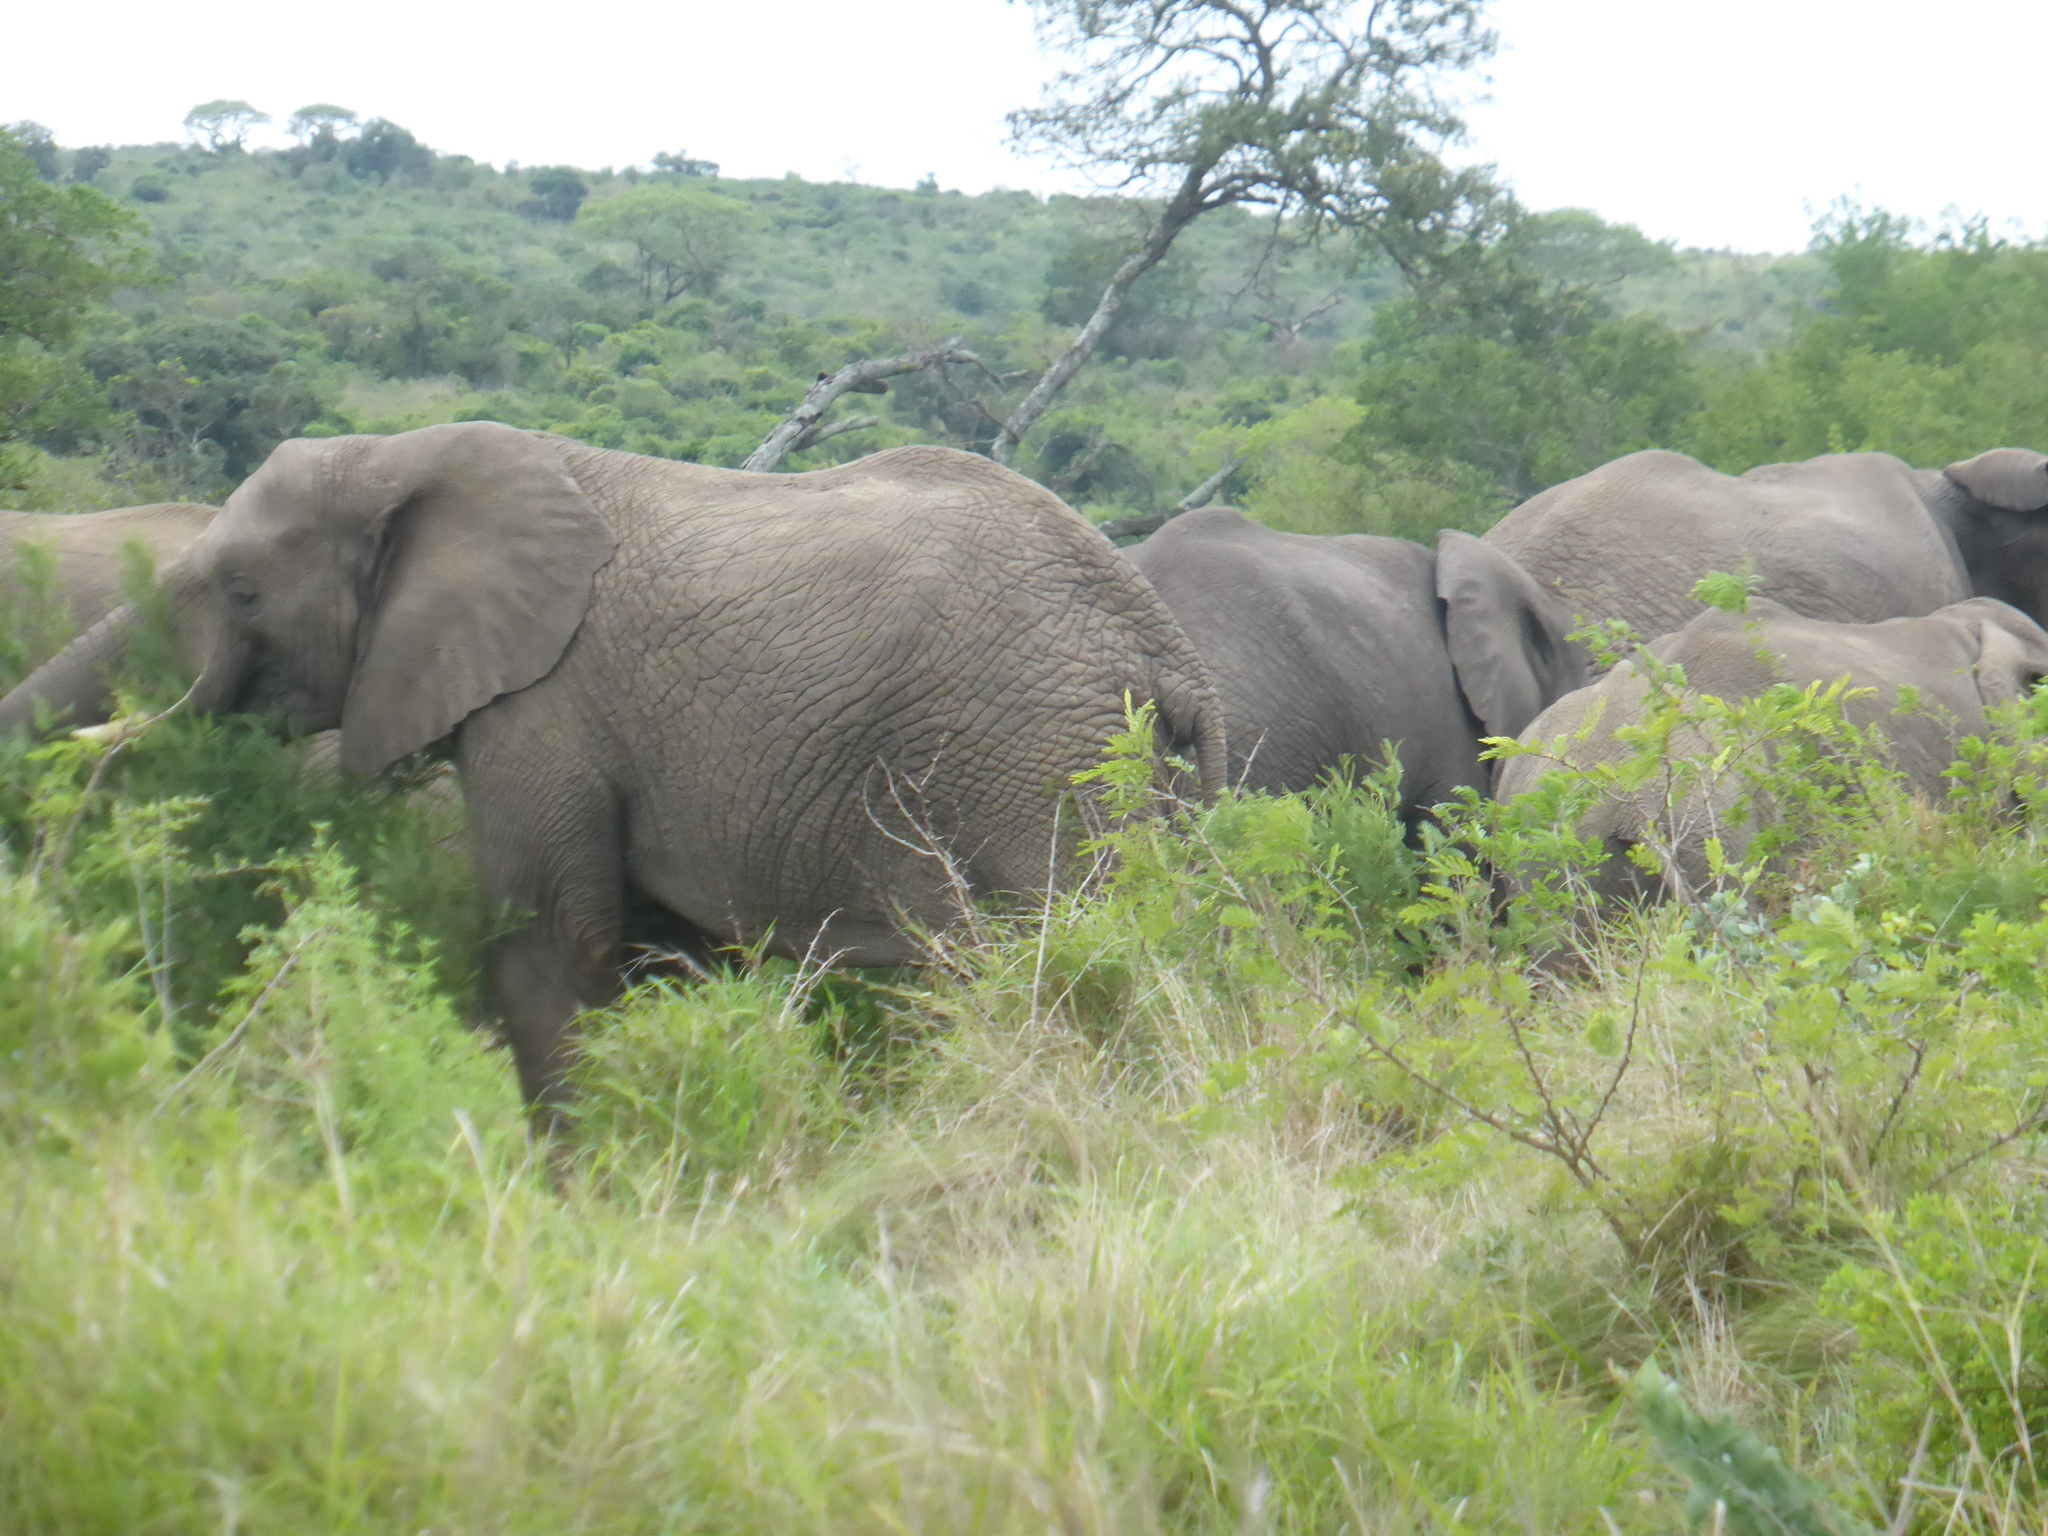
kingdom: Animalia
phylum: Chordata
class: Mammalia
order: Proboscidea
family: Elephantidae
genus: Loxodonta
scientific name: Loxodonta africana
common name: African elephant
